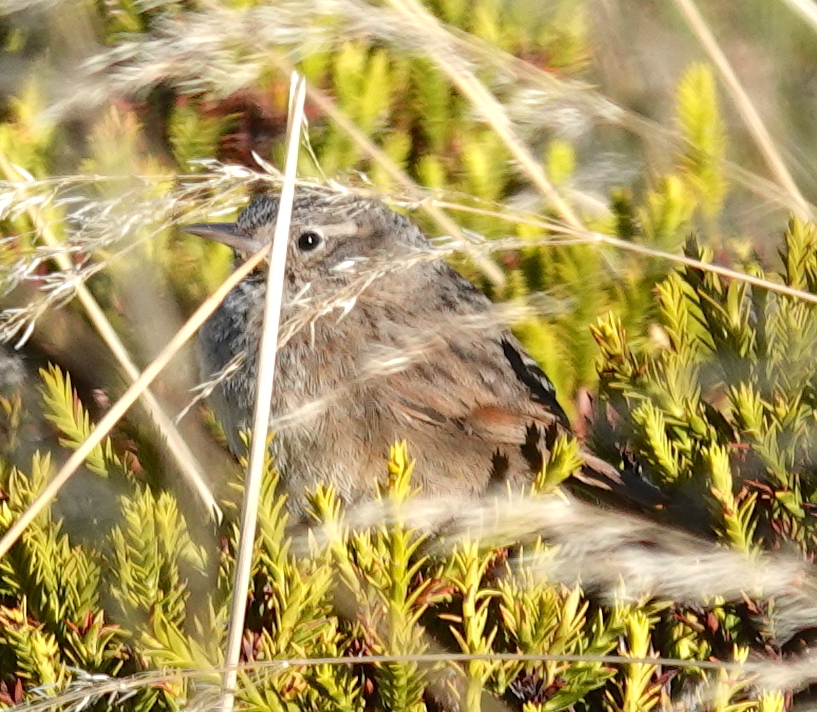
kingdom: Animalia
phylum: Chordata
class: Aves
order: Passeriformes
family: Furnariidae
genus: Asthenes
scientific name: Asthenes wyatti
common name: Streak-backed canastero
